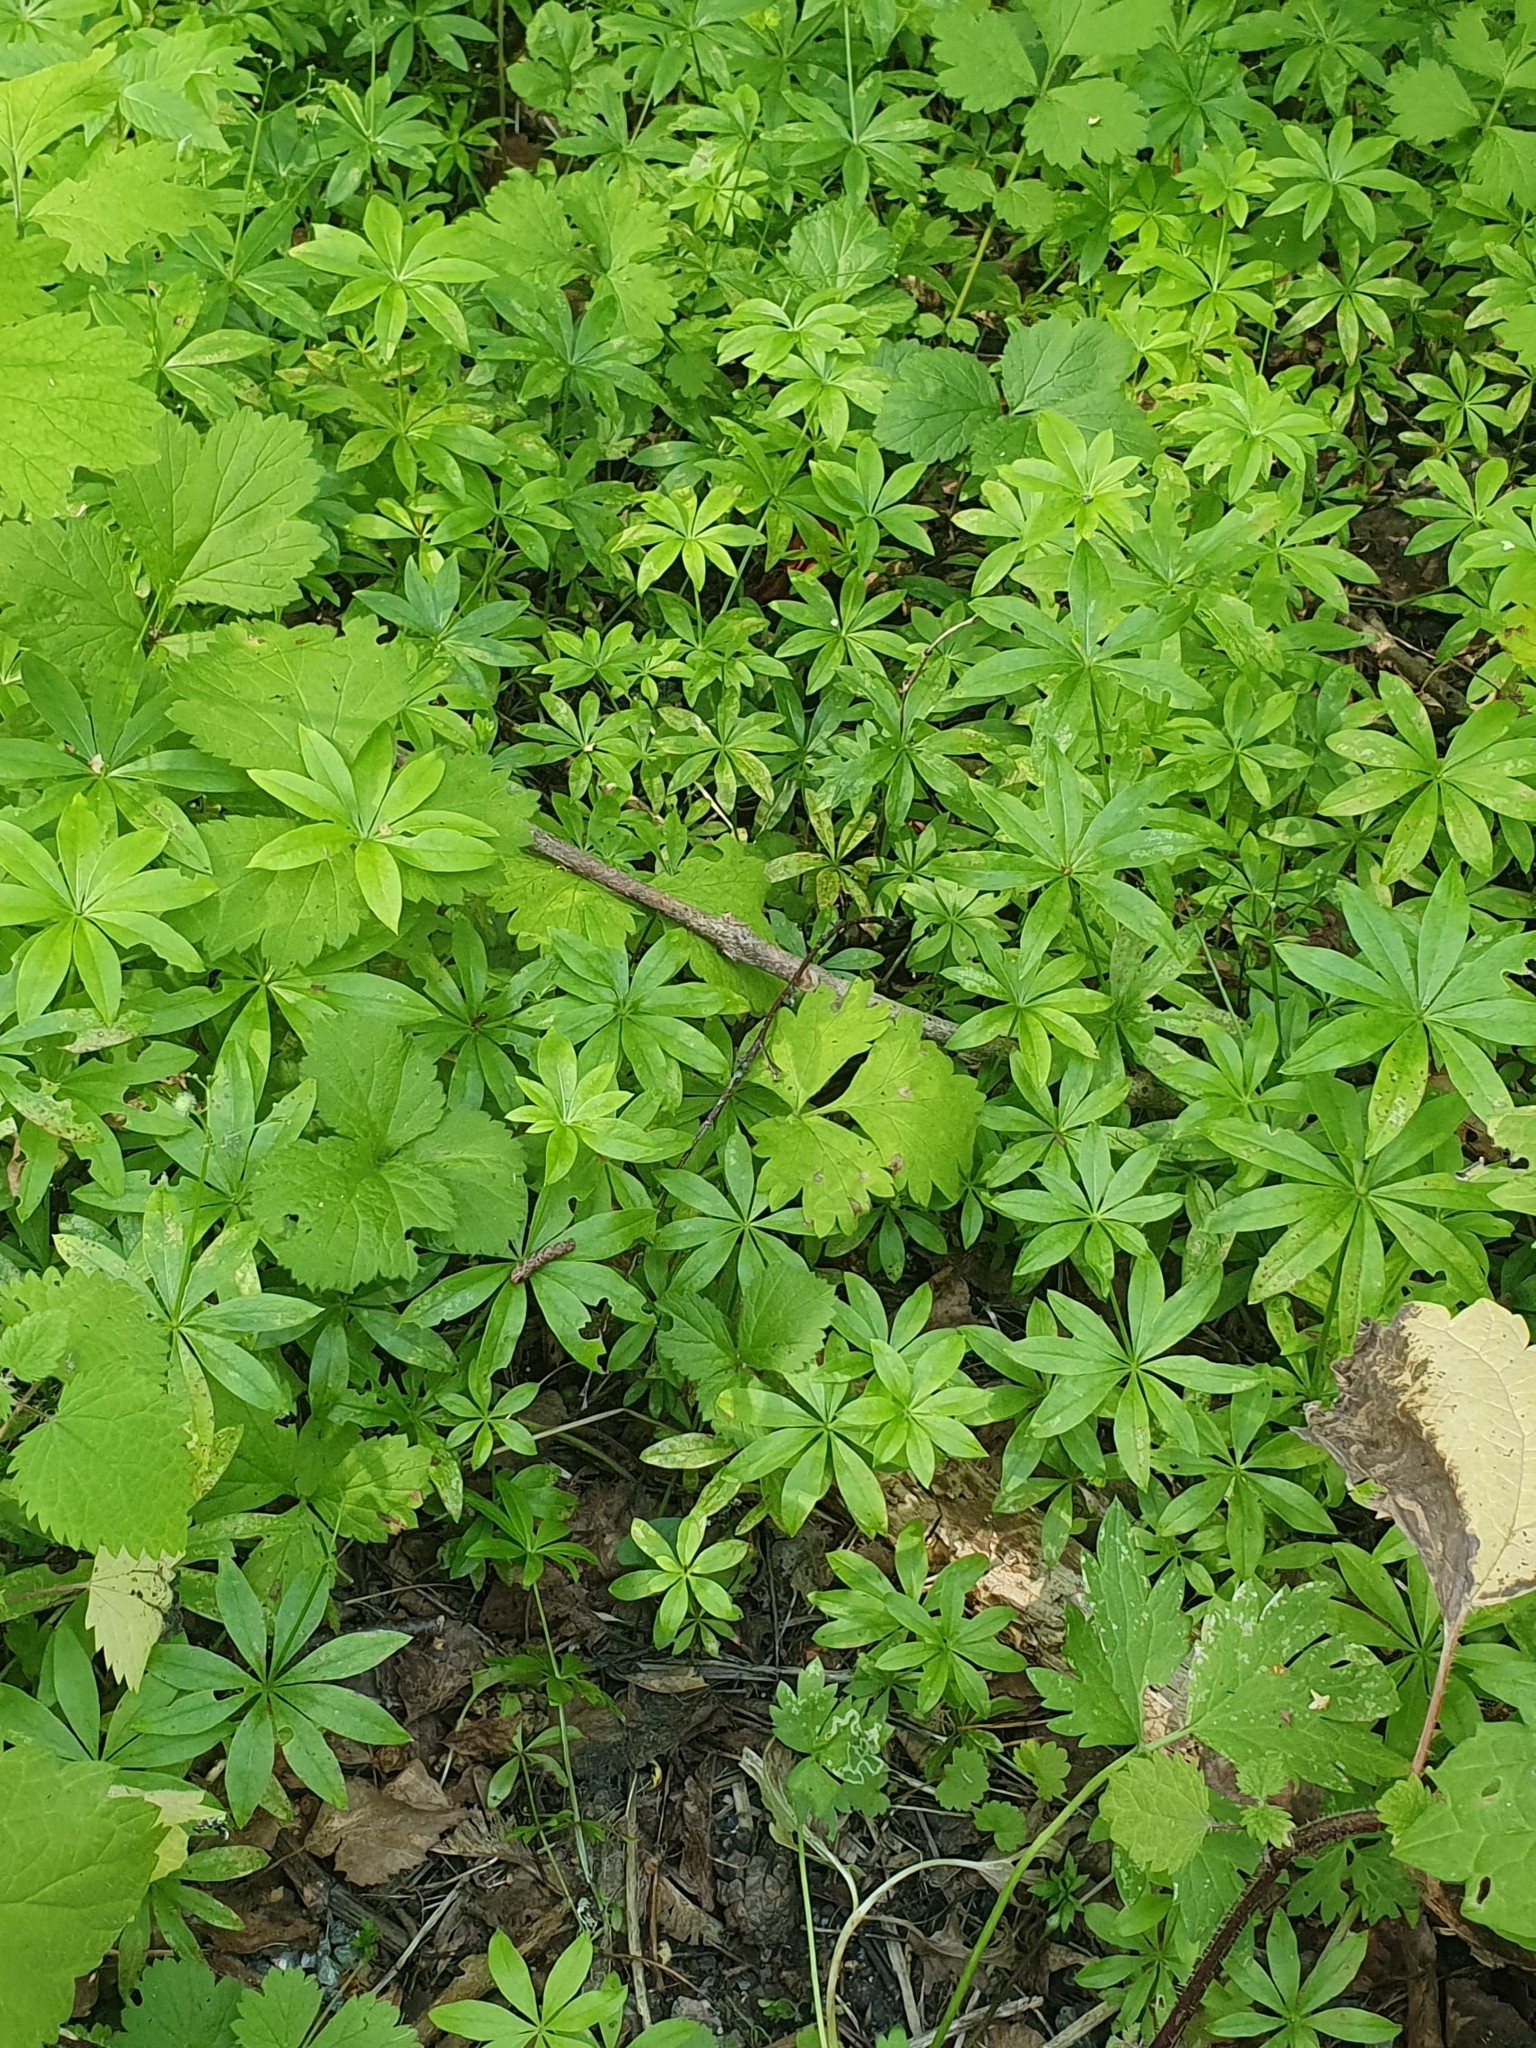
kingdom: Plantae
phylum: Tracheophyta
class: Magnoliopsida
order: Gentianales
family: Rubiaceae
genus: Galium
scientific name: Galium odoratum
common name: Sweet woodruff
